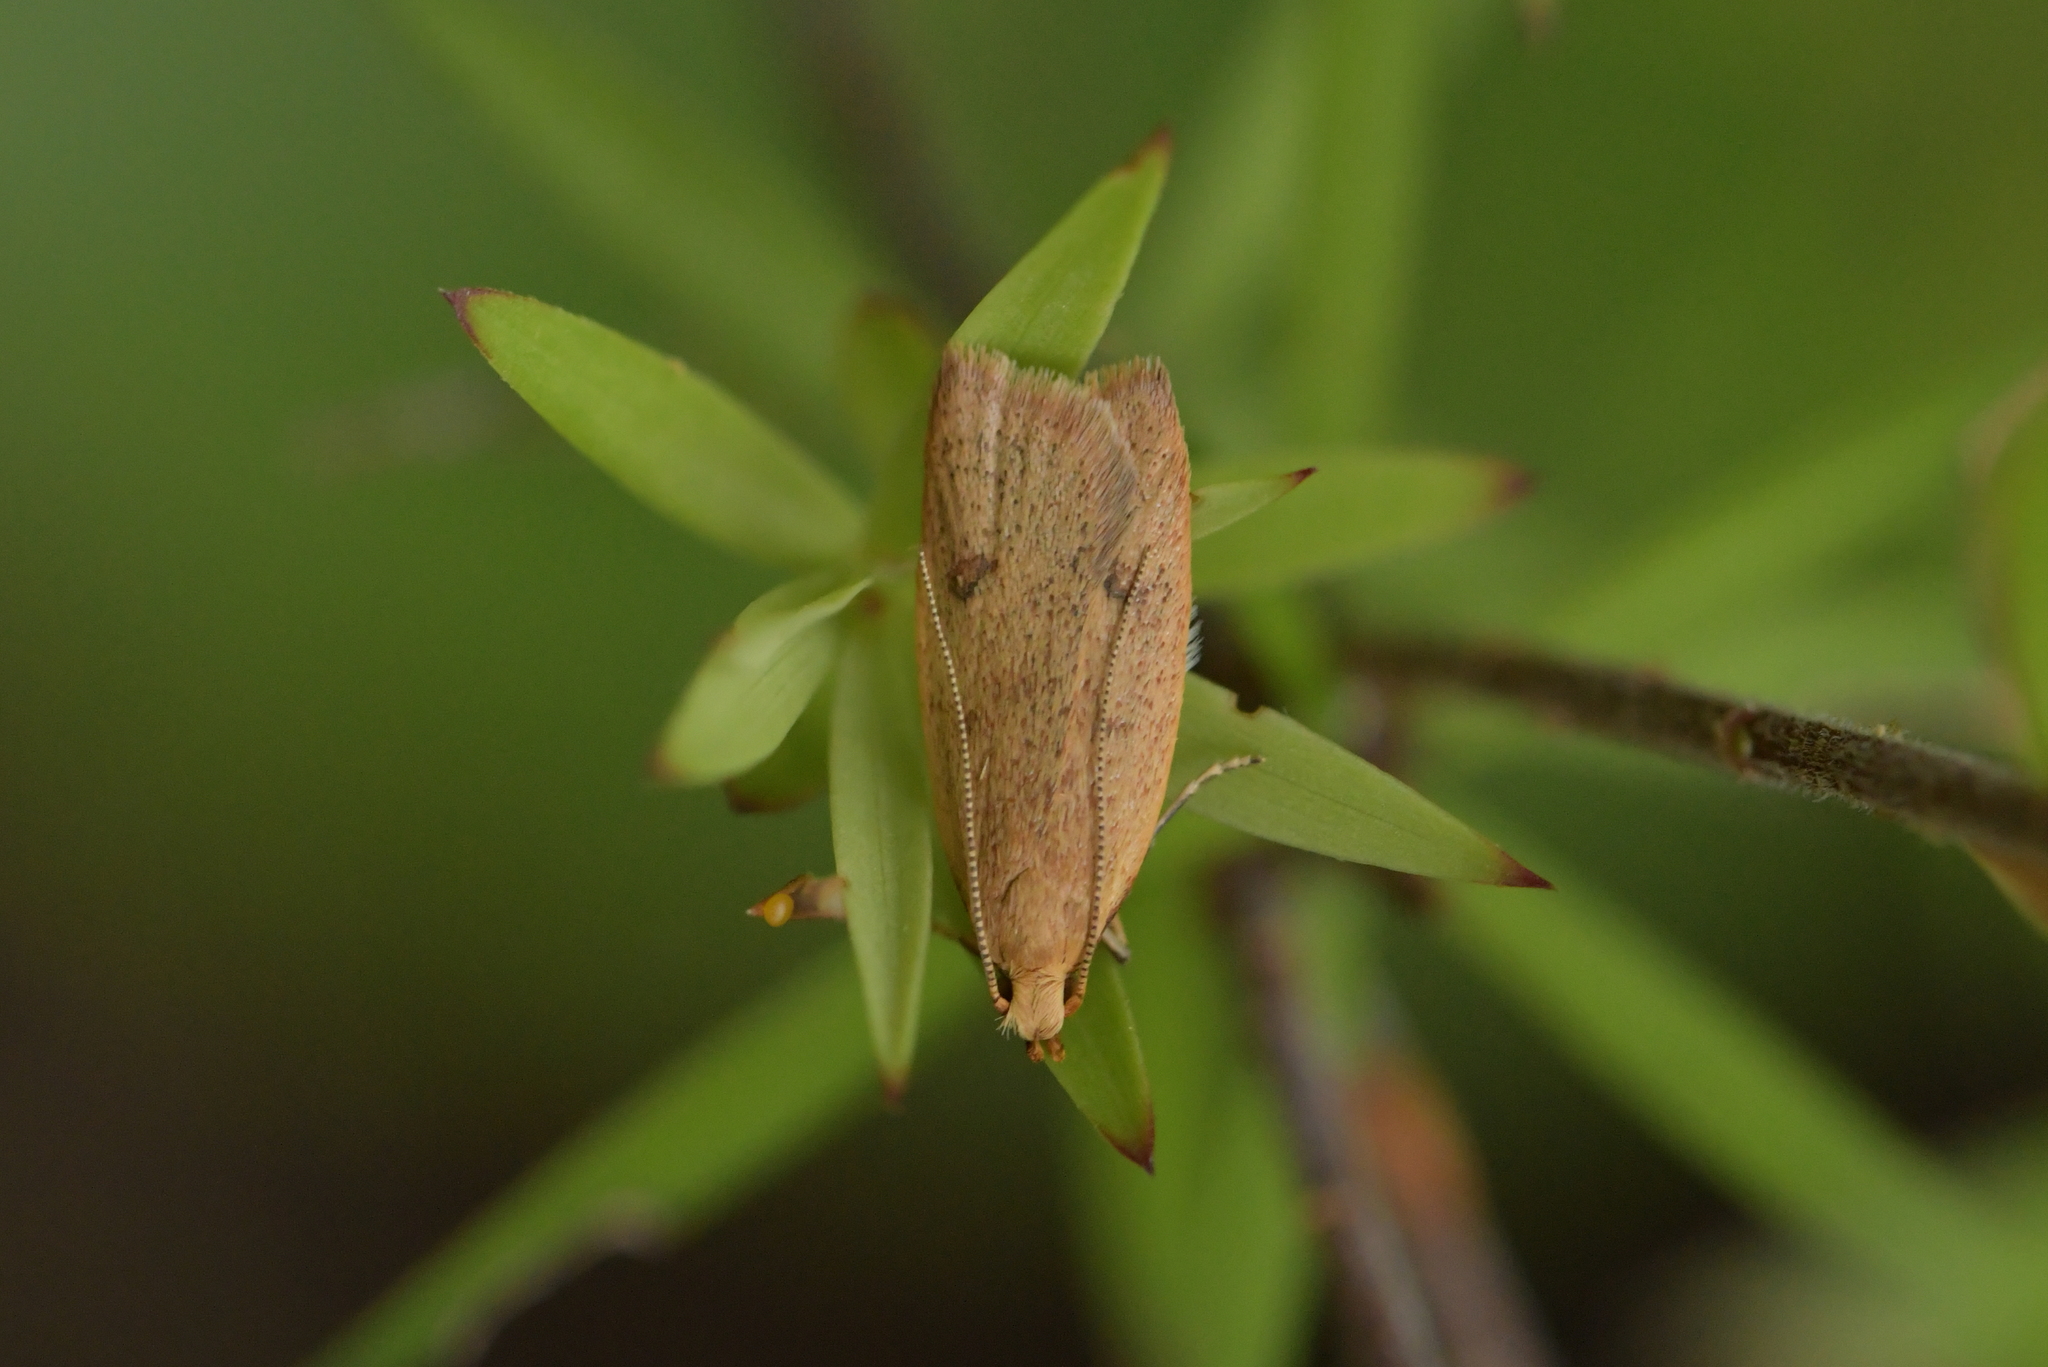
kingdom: Animalia
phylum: Arthropoda
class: Insecta
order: Lepidoptera
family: Oecophoridae
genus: Gymnobathra
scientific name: Gymnobathra sarcoxantha
